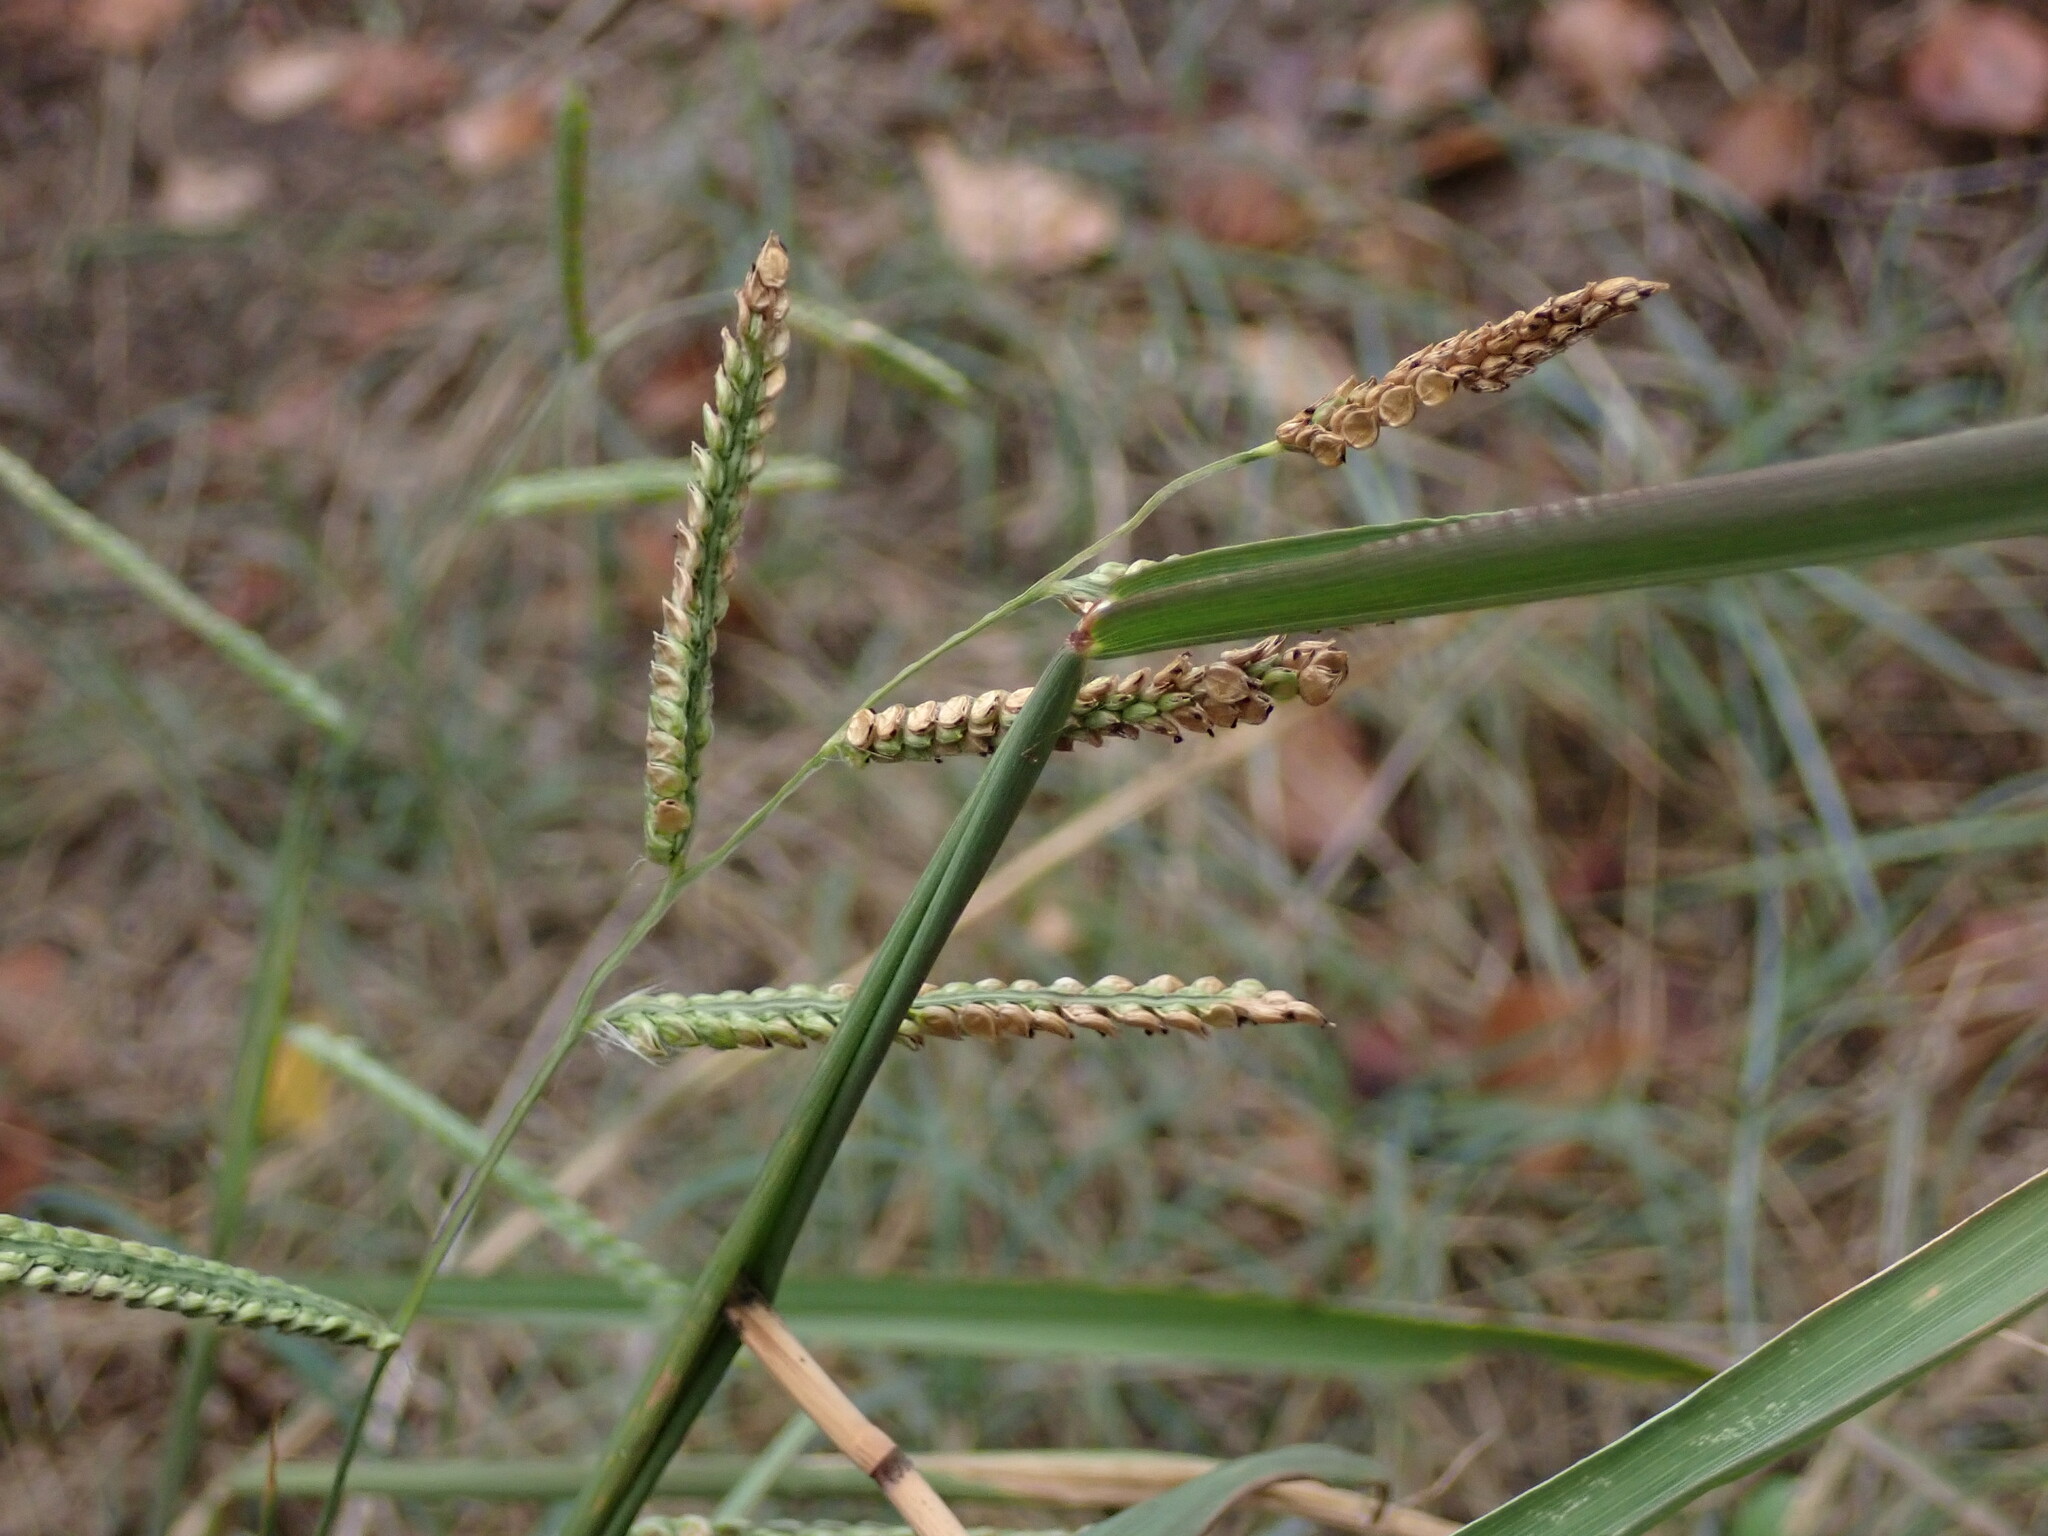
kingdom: Plantae
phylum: Tracheophyta
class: Liliopsida
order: Poales
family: Poaceae
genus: Paspalum
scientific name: Paspalum dilatatum
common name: Dallisgrass
